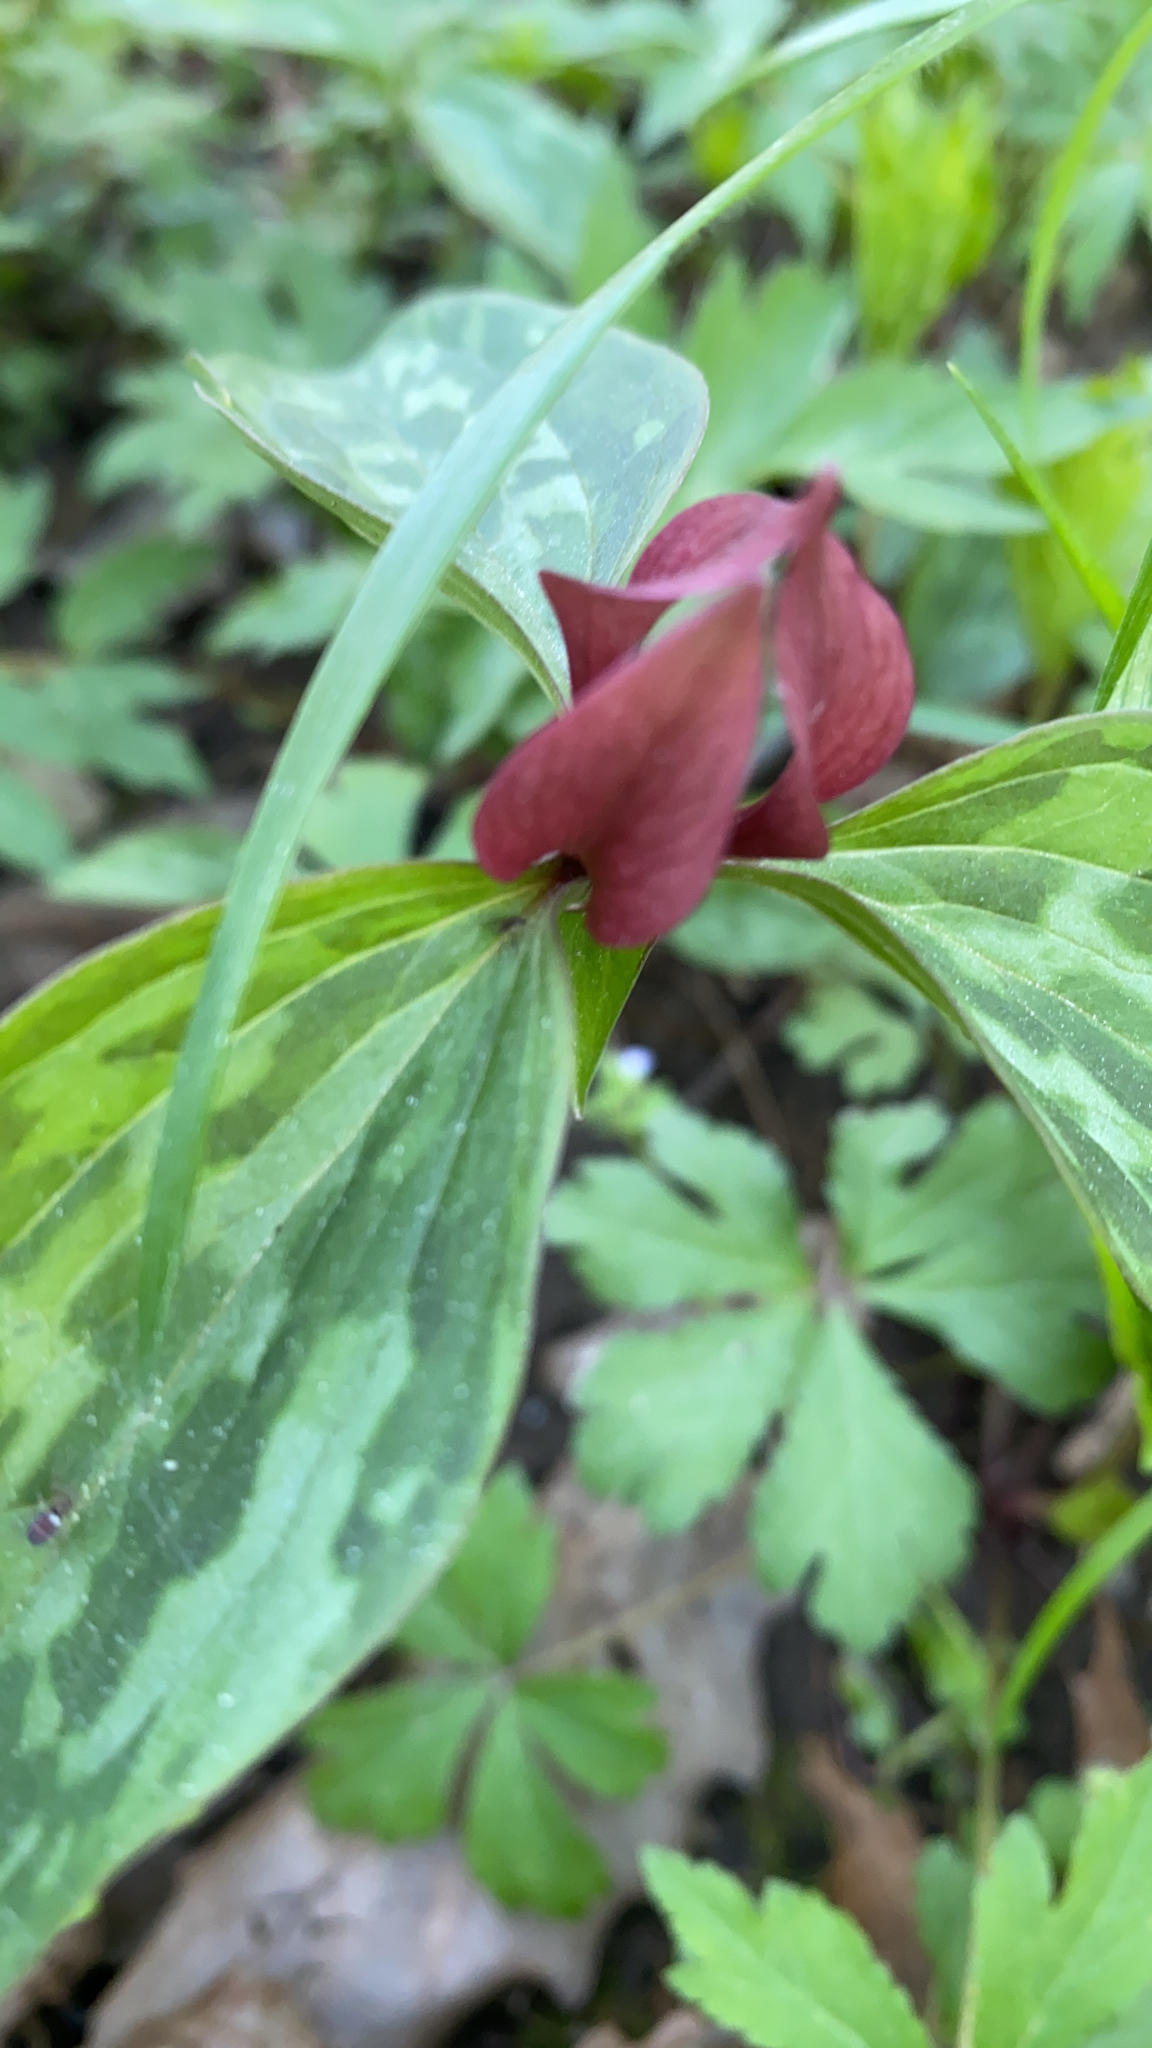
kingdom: Plantae
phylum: Tracheophyta
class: Liliopsida
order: Liliales
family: Melanthiaceae
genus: Trillium
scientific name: Trillium recurvatum
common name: Bloody butcher
